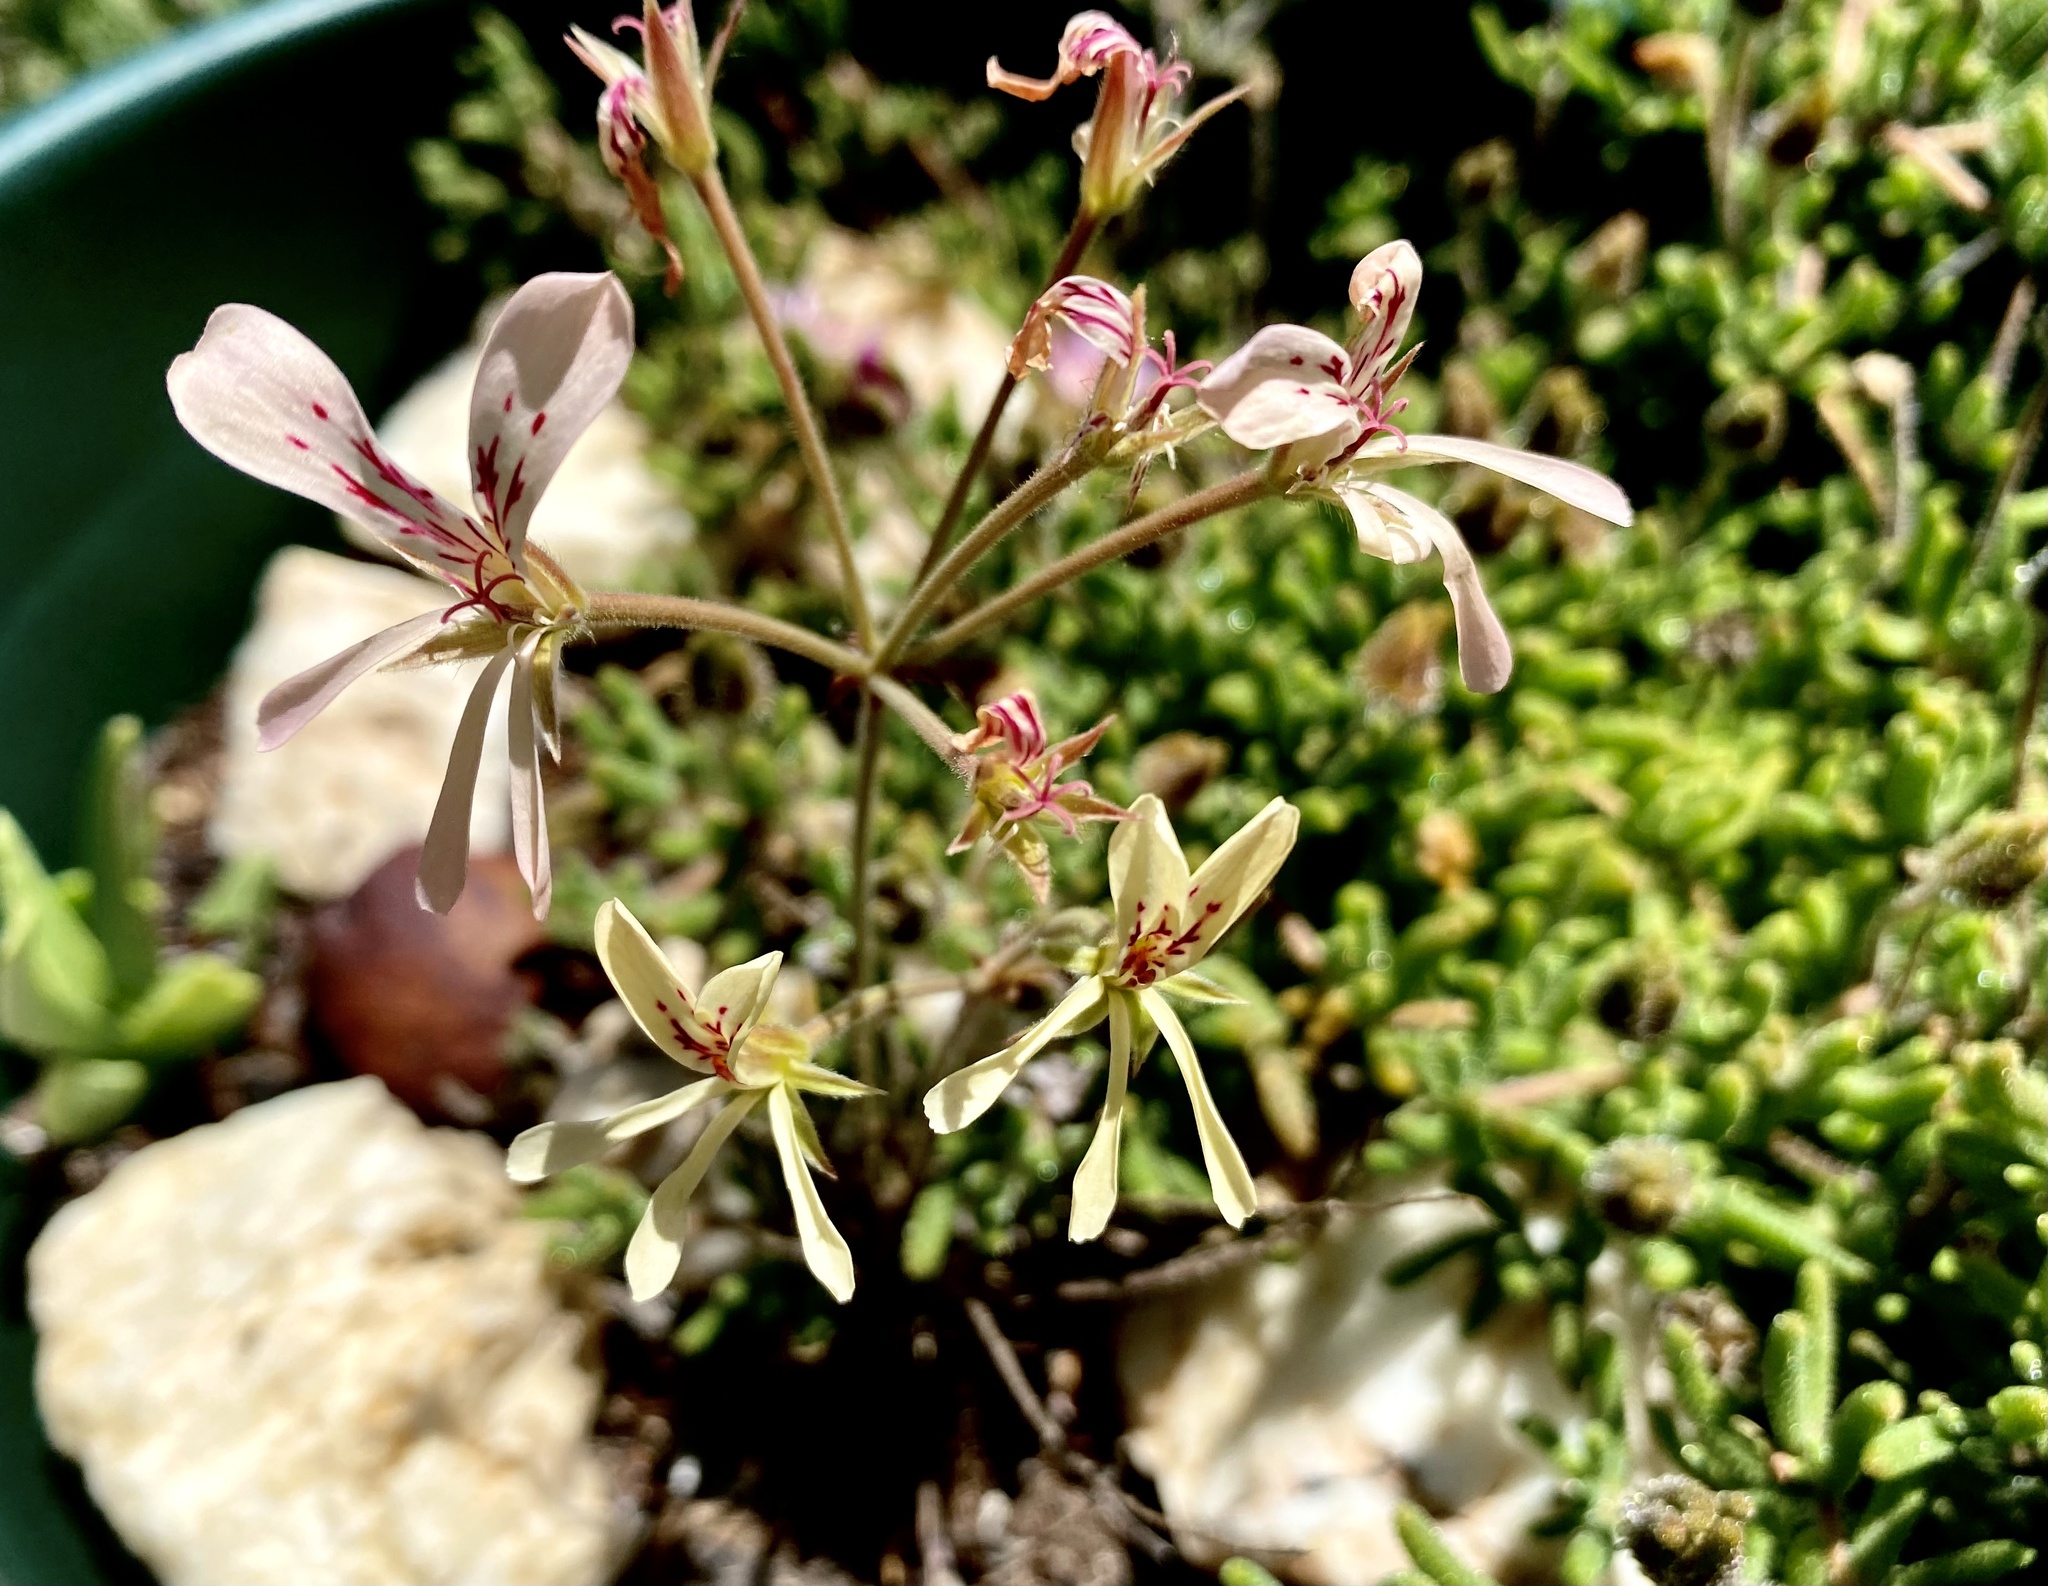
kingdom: Plantae
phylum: Tracheophyta
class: Magnoliopsida
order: Geraniales
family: Geraniaceae
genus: Pelargonium
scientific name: Pelargonium pinnatum
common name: Pinnated pelargonium
